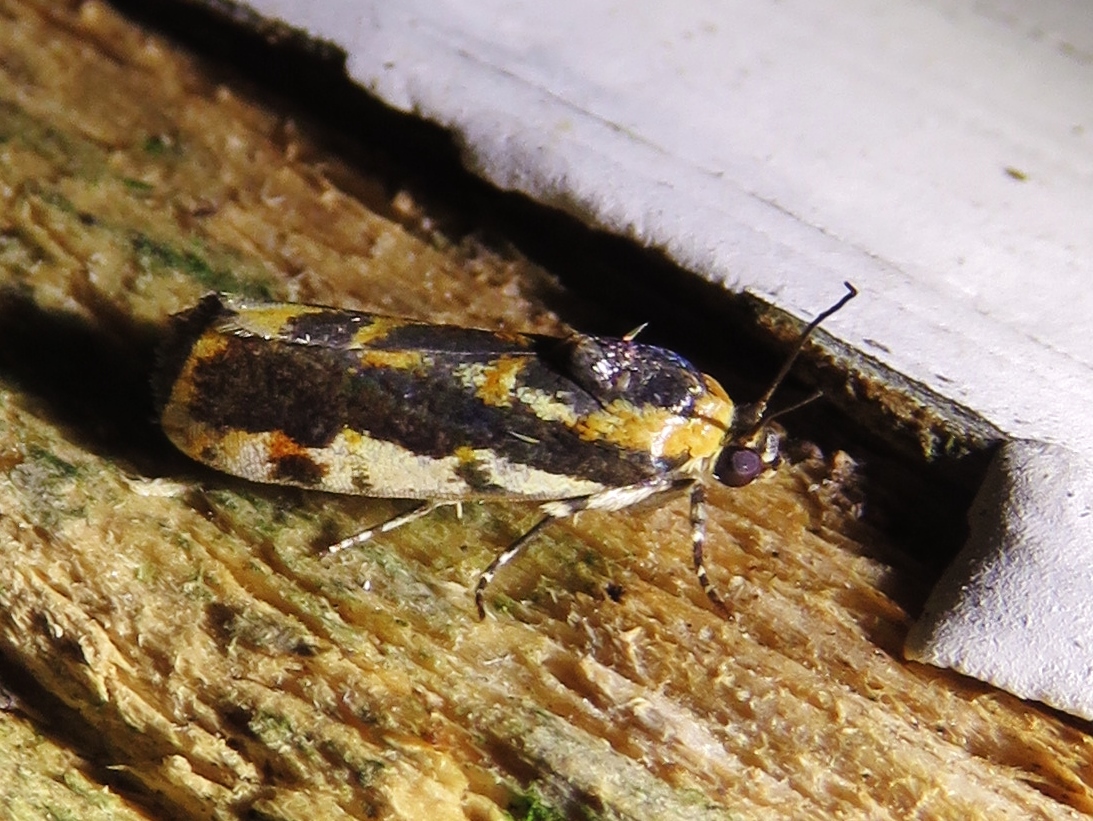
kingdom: Animalia
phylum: Arthropoda
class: Insecta
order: Lepidoptera
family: Noctuidae
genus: Acontia
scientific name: Acontia leo
